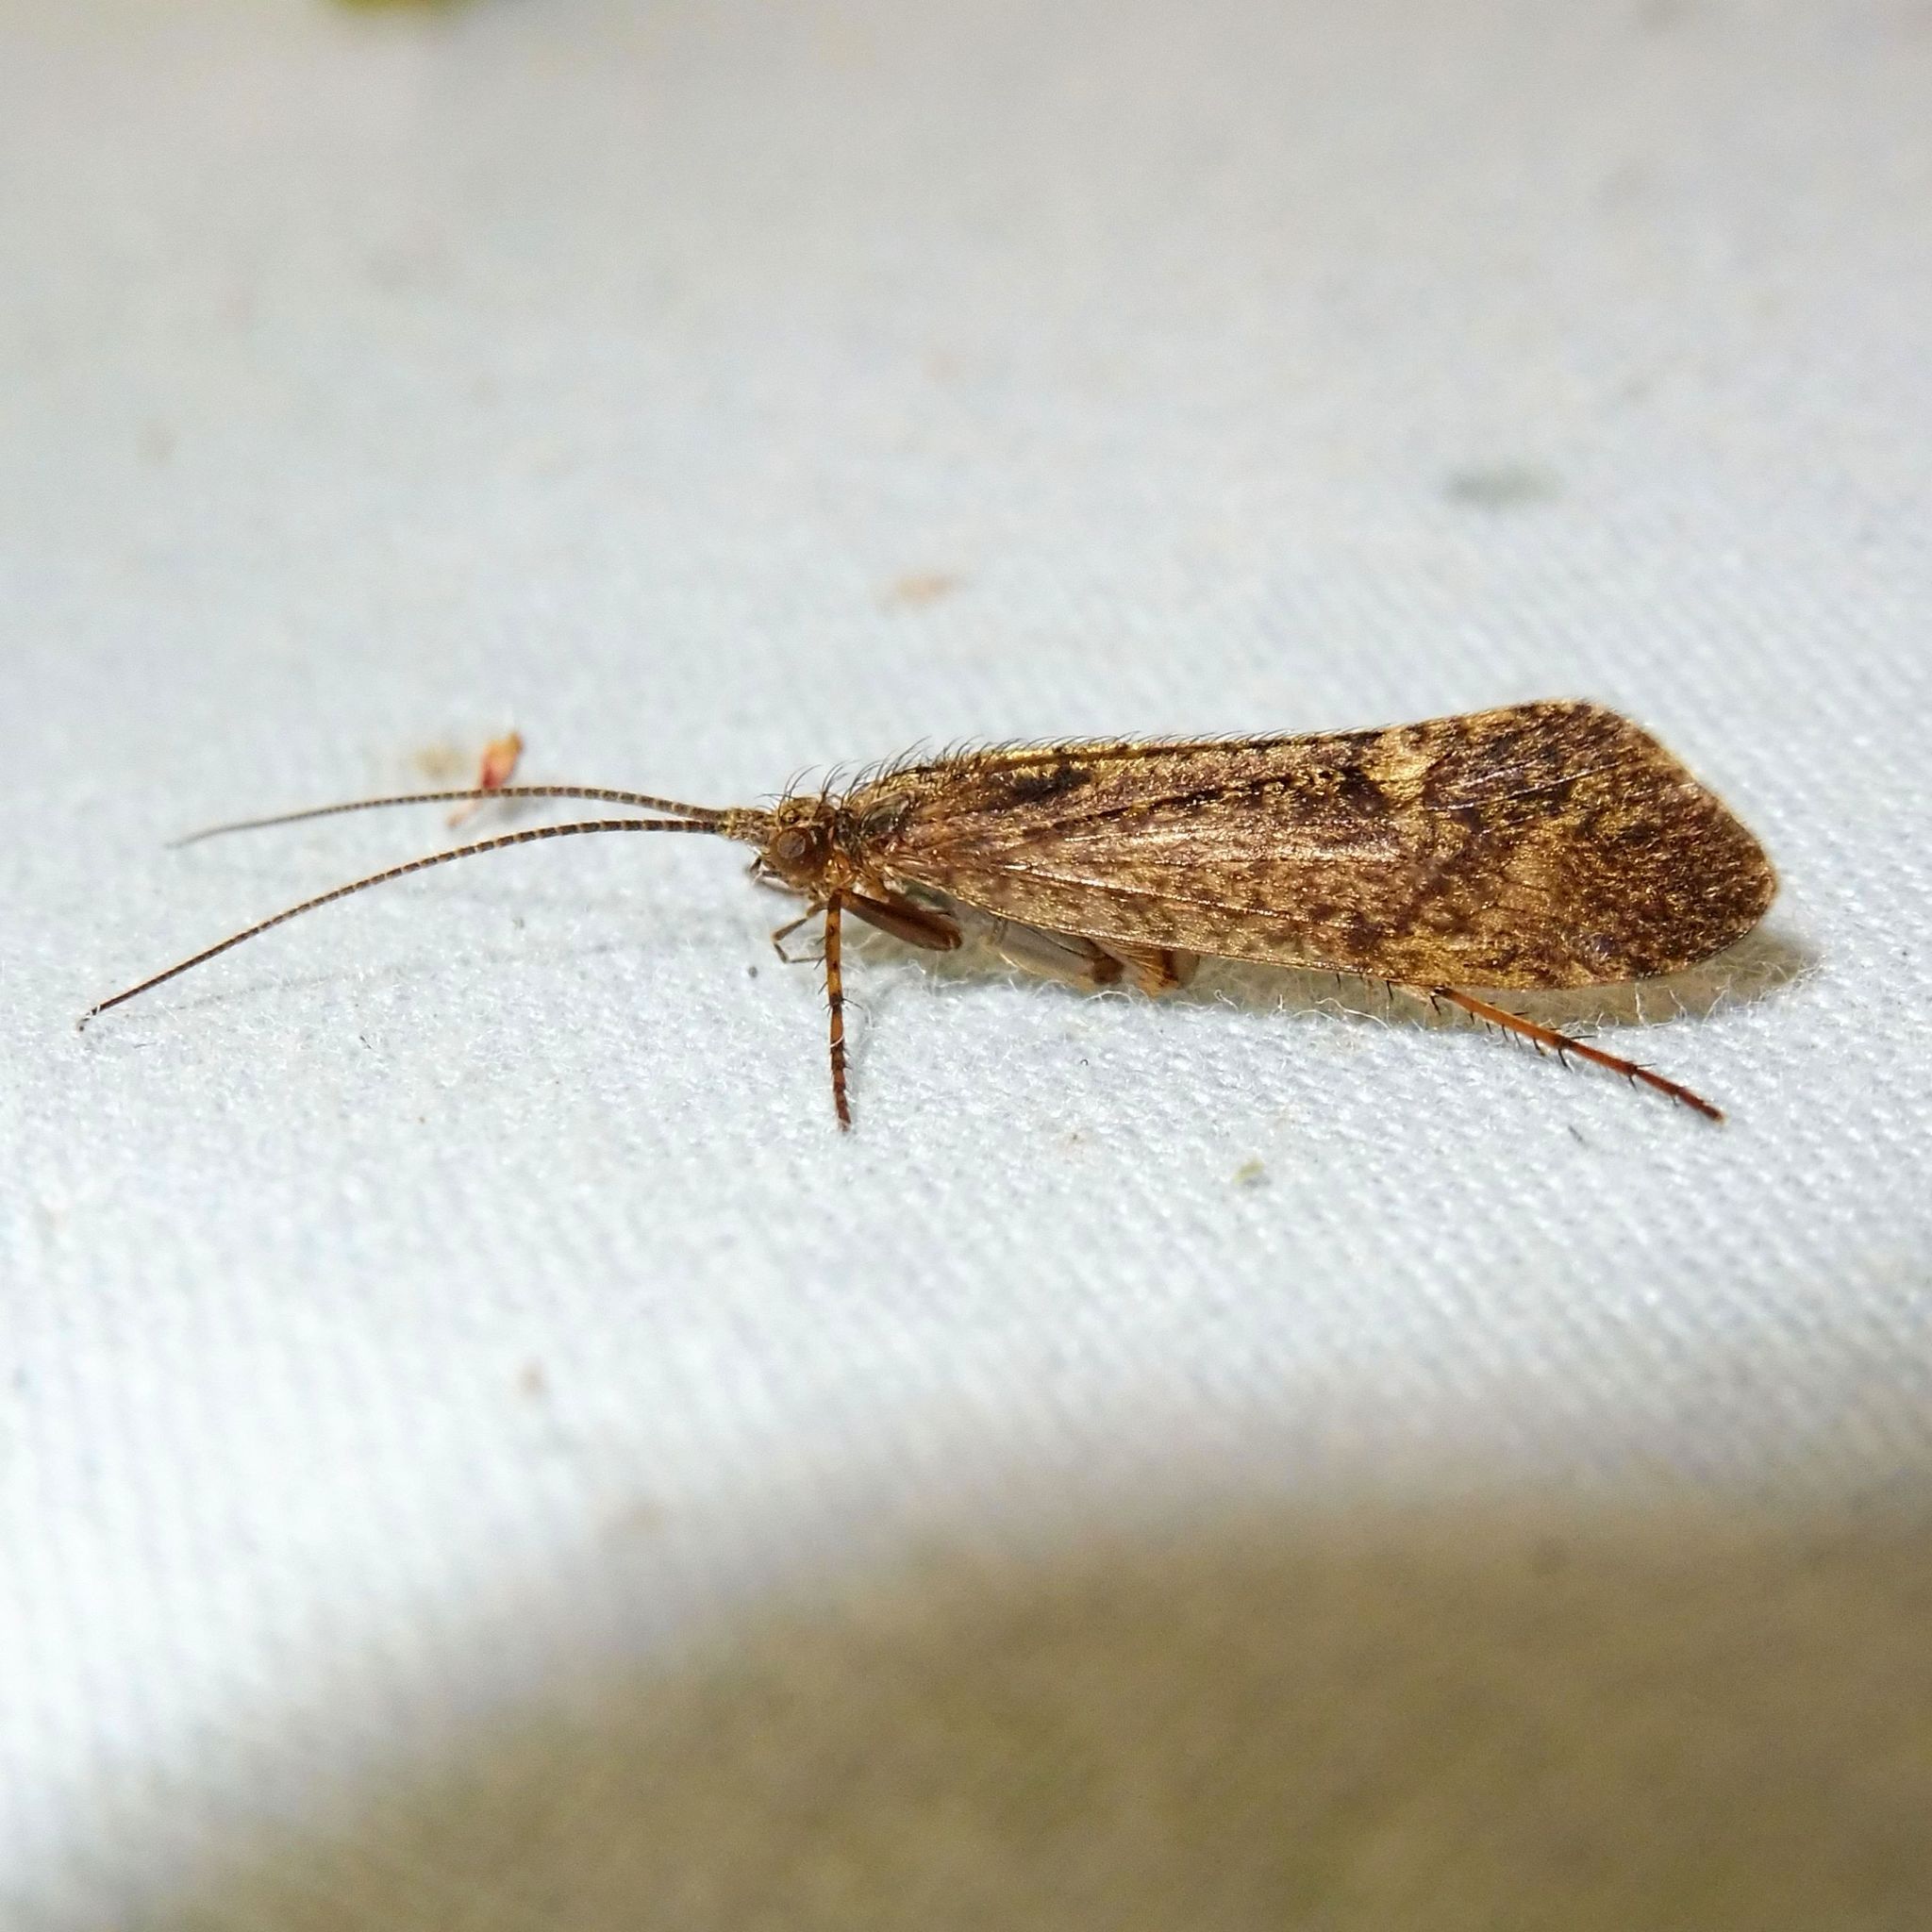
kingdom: Animalia
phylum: Arthropoda
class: Insecta
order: Trichoptera
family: Limnephilidae
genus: Limnephilus
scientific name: Limnephilus sparsus
